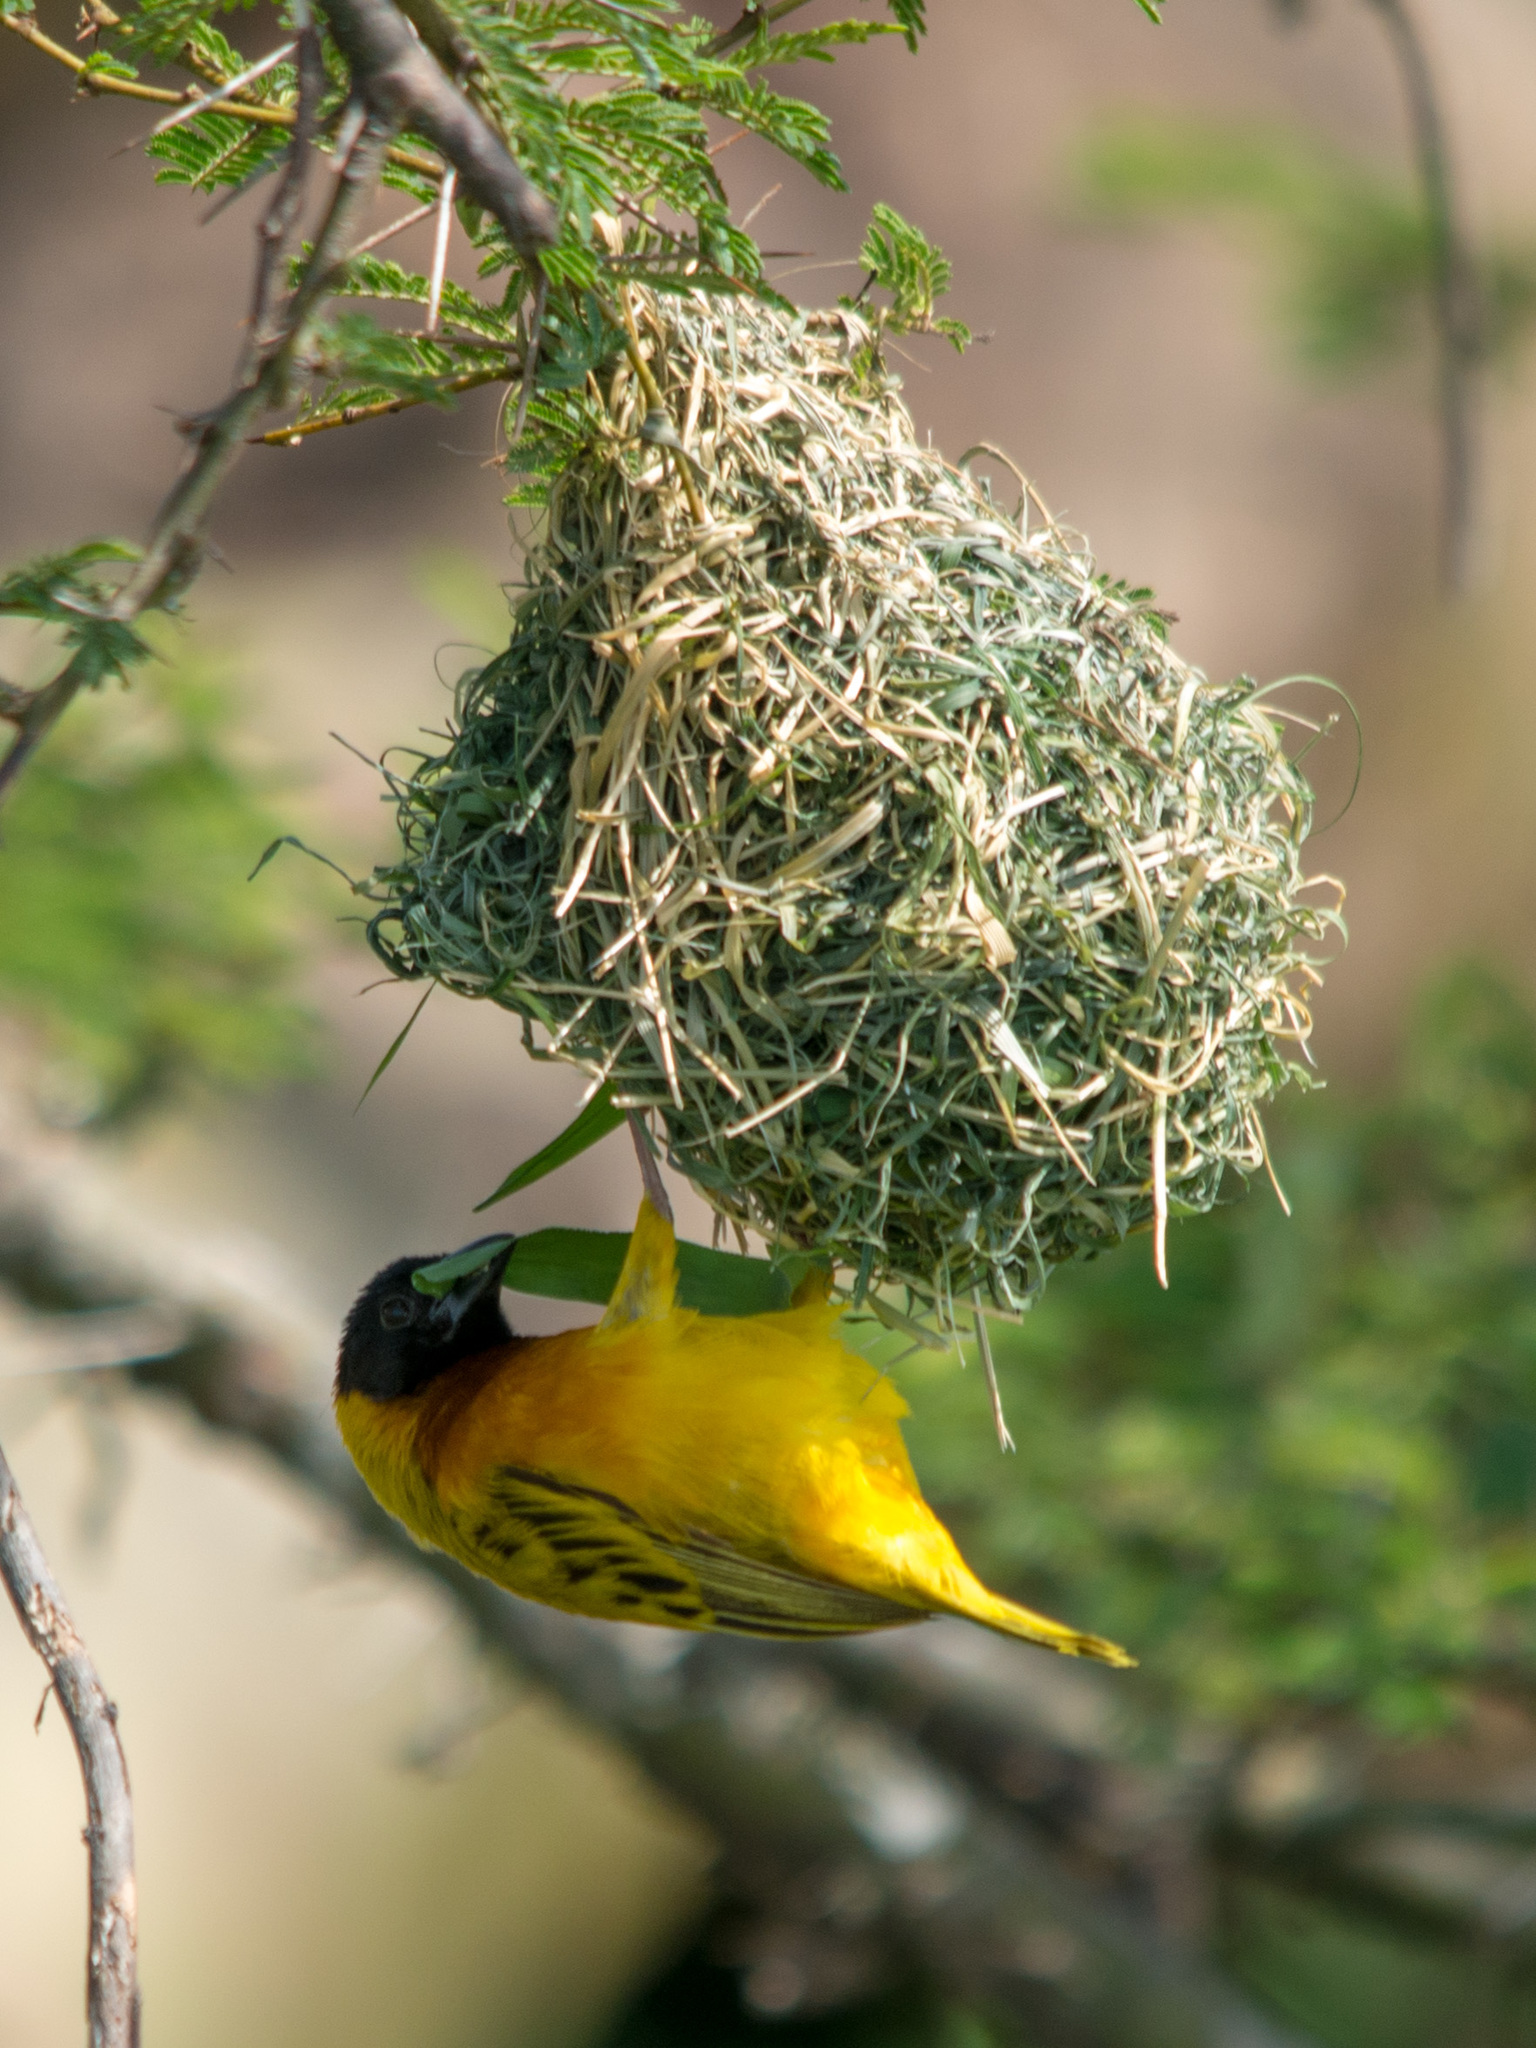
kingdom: Animalia
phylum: Chordata
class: Aves
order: Passeriformes
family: Ploceidae
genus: Ploceus
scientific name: Ploceus melanocephalus
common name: Black-headed weaver
